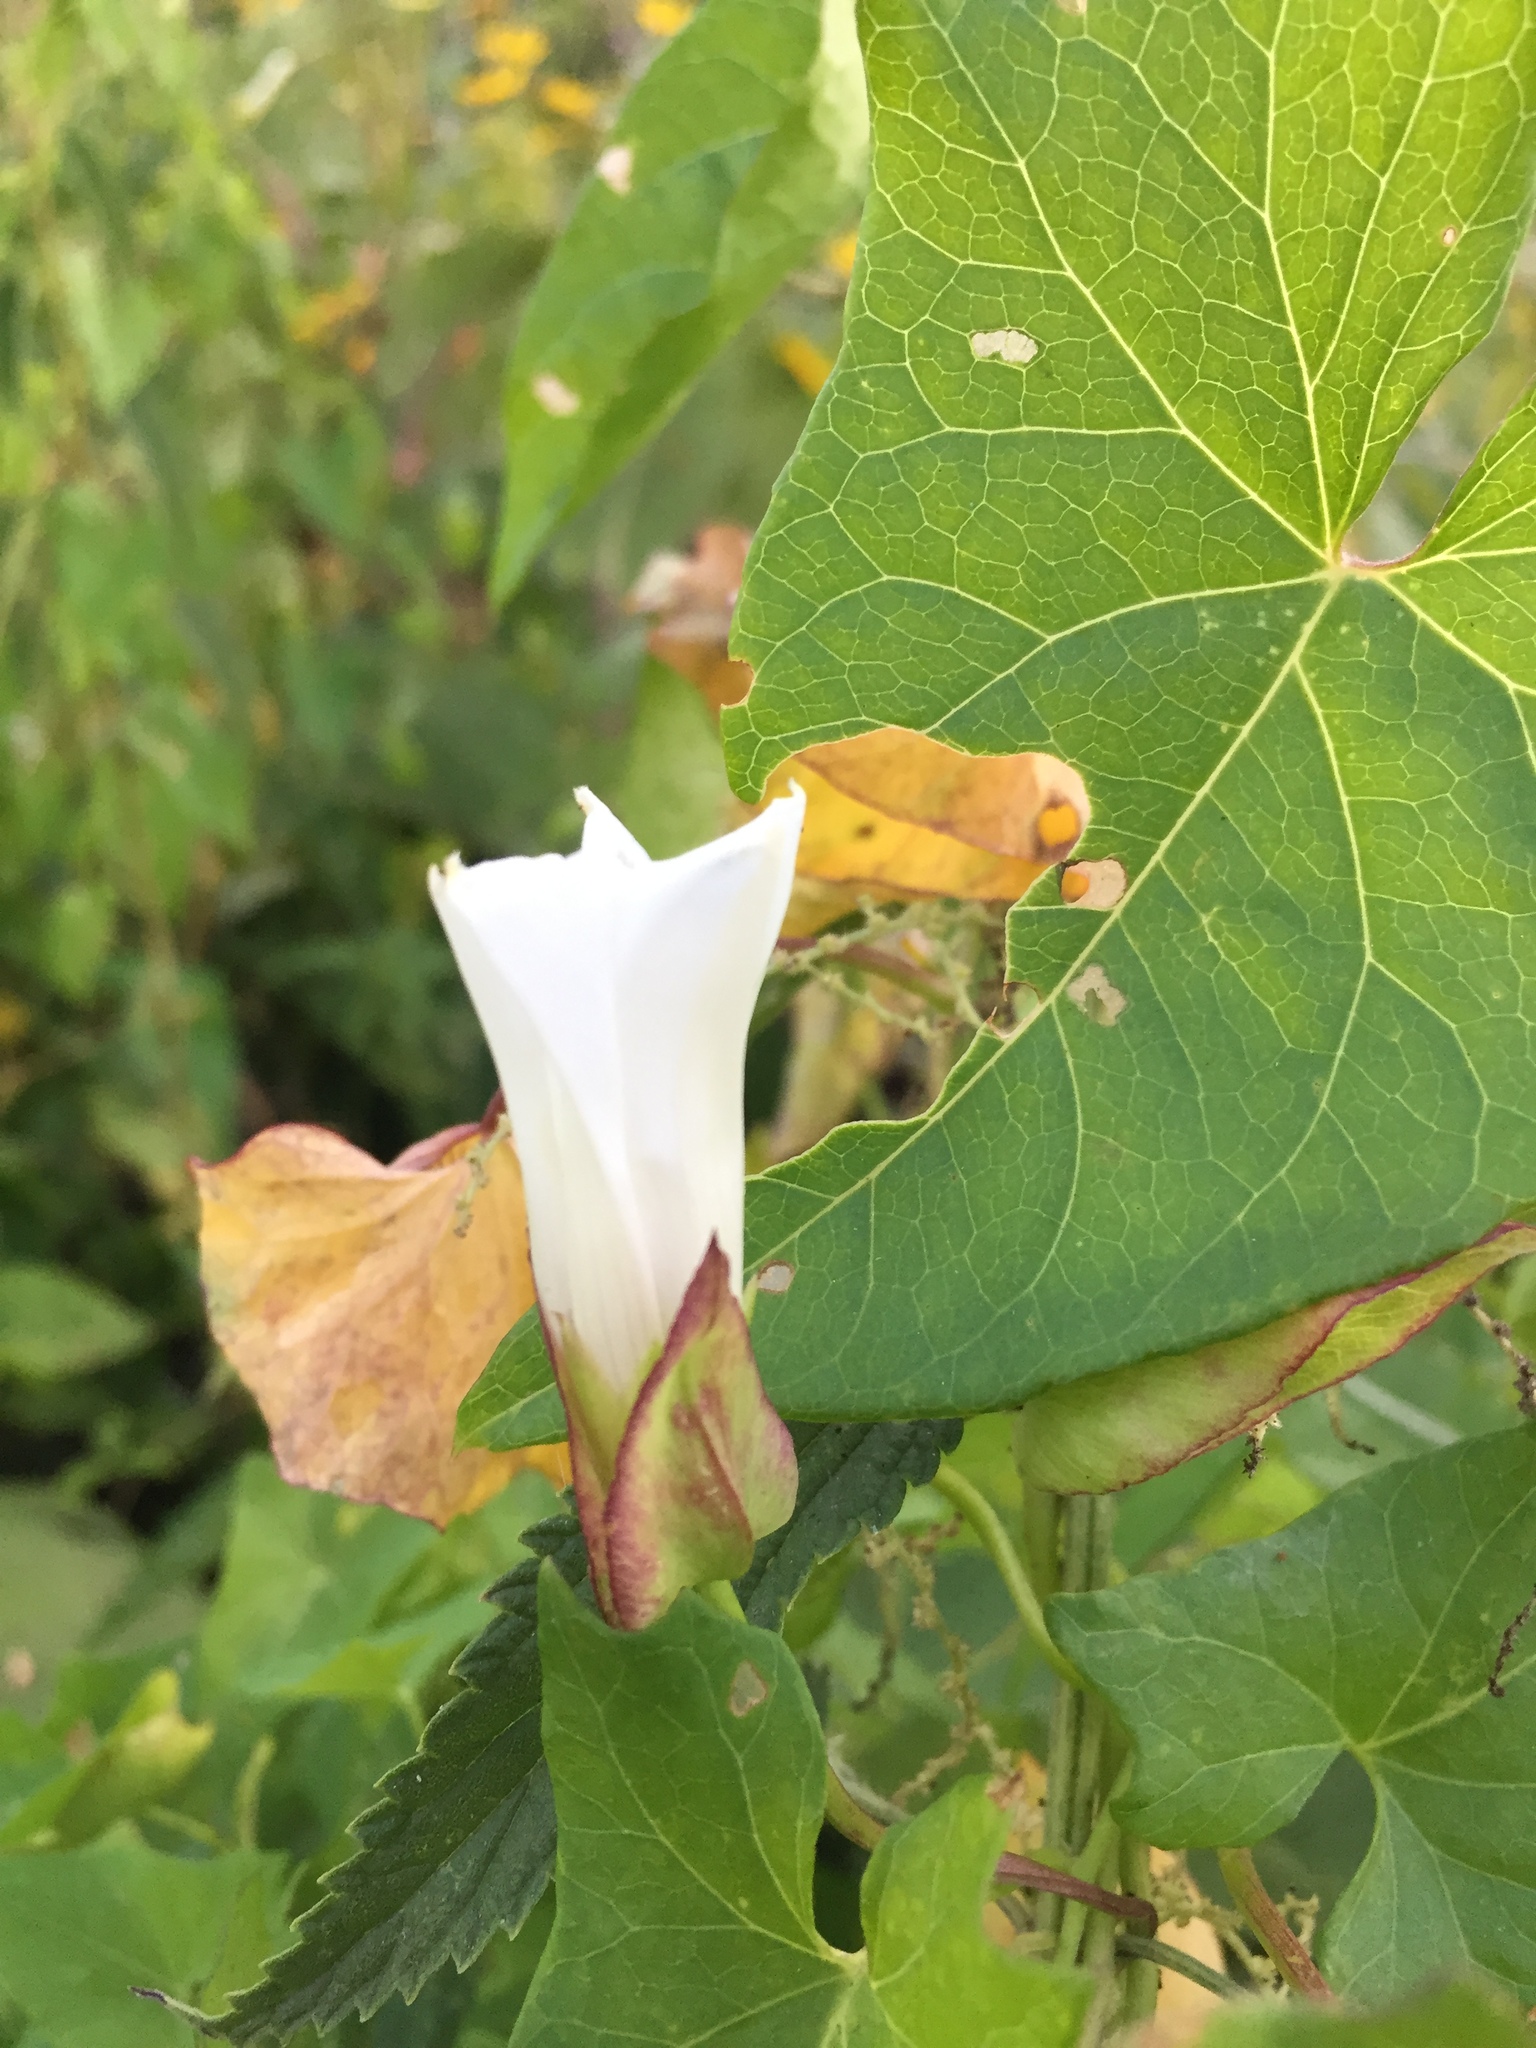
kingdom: Plantae
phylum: Tracheophyta
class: Magnoliopsida
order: Solanales
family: Convolvulaceae
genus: Calystegia
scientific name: Calystegia sepium
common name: Hedge bindweed
